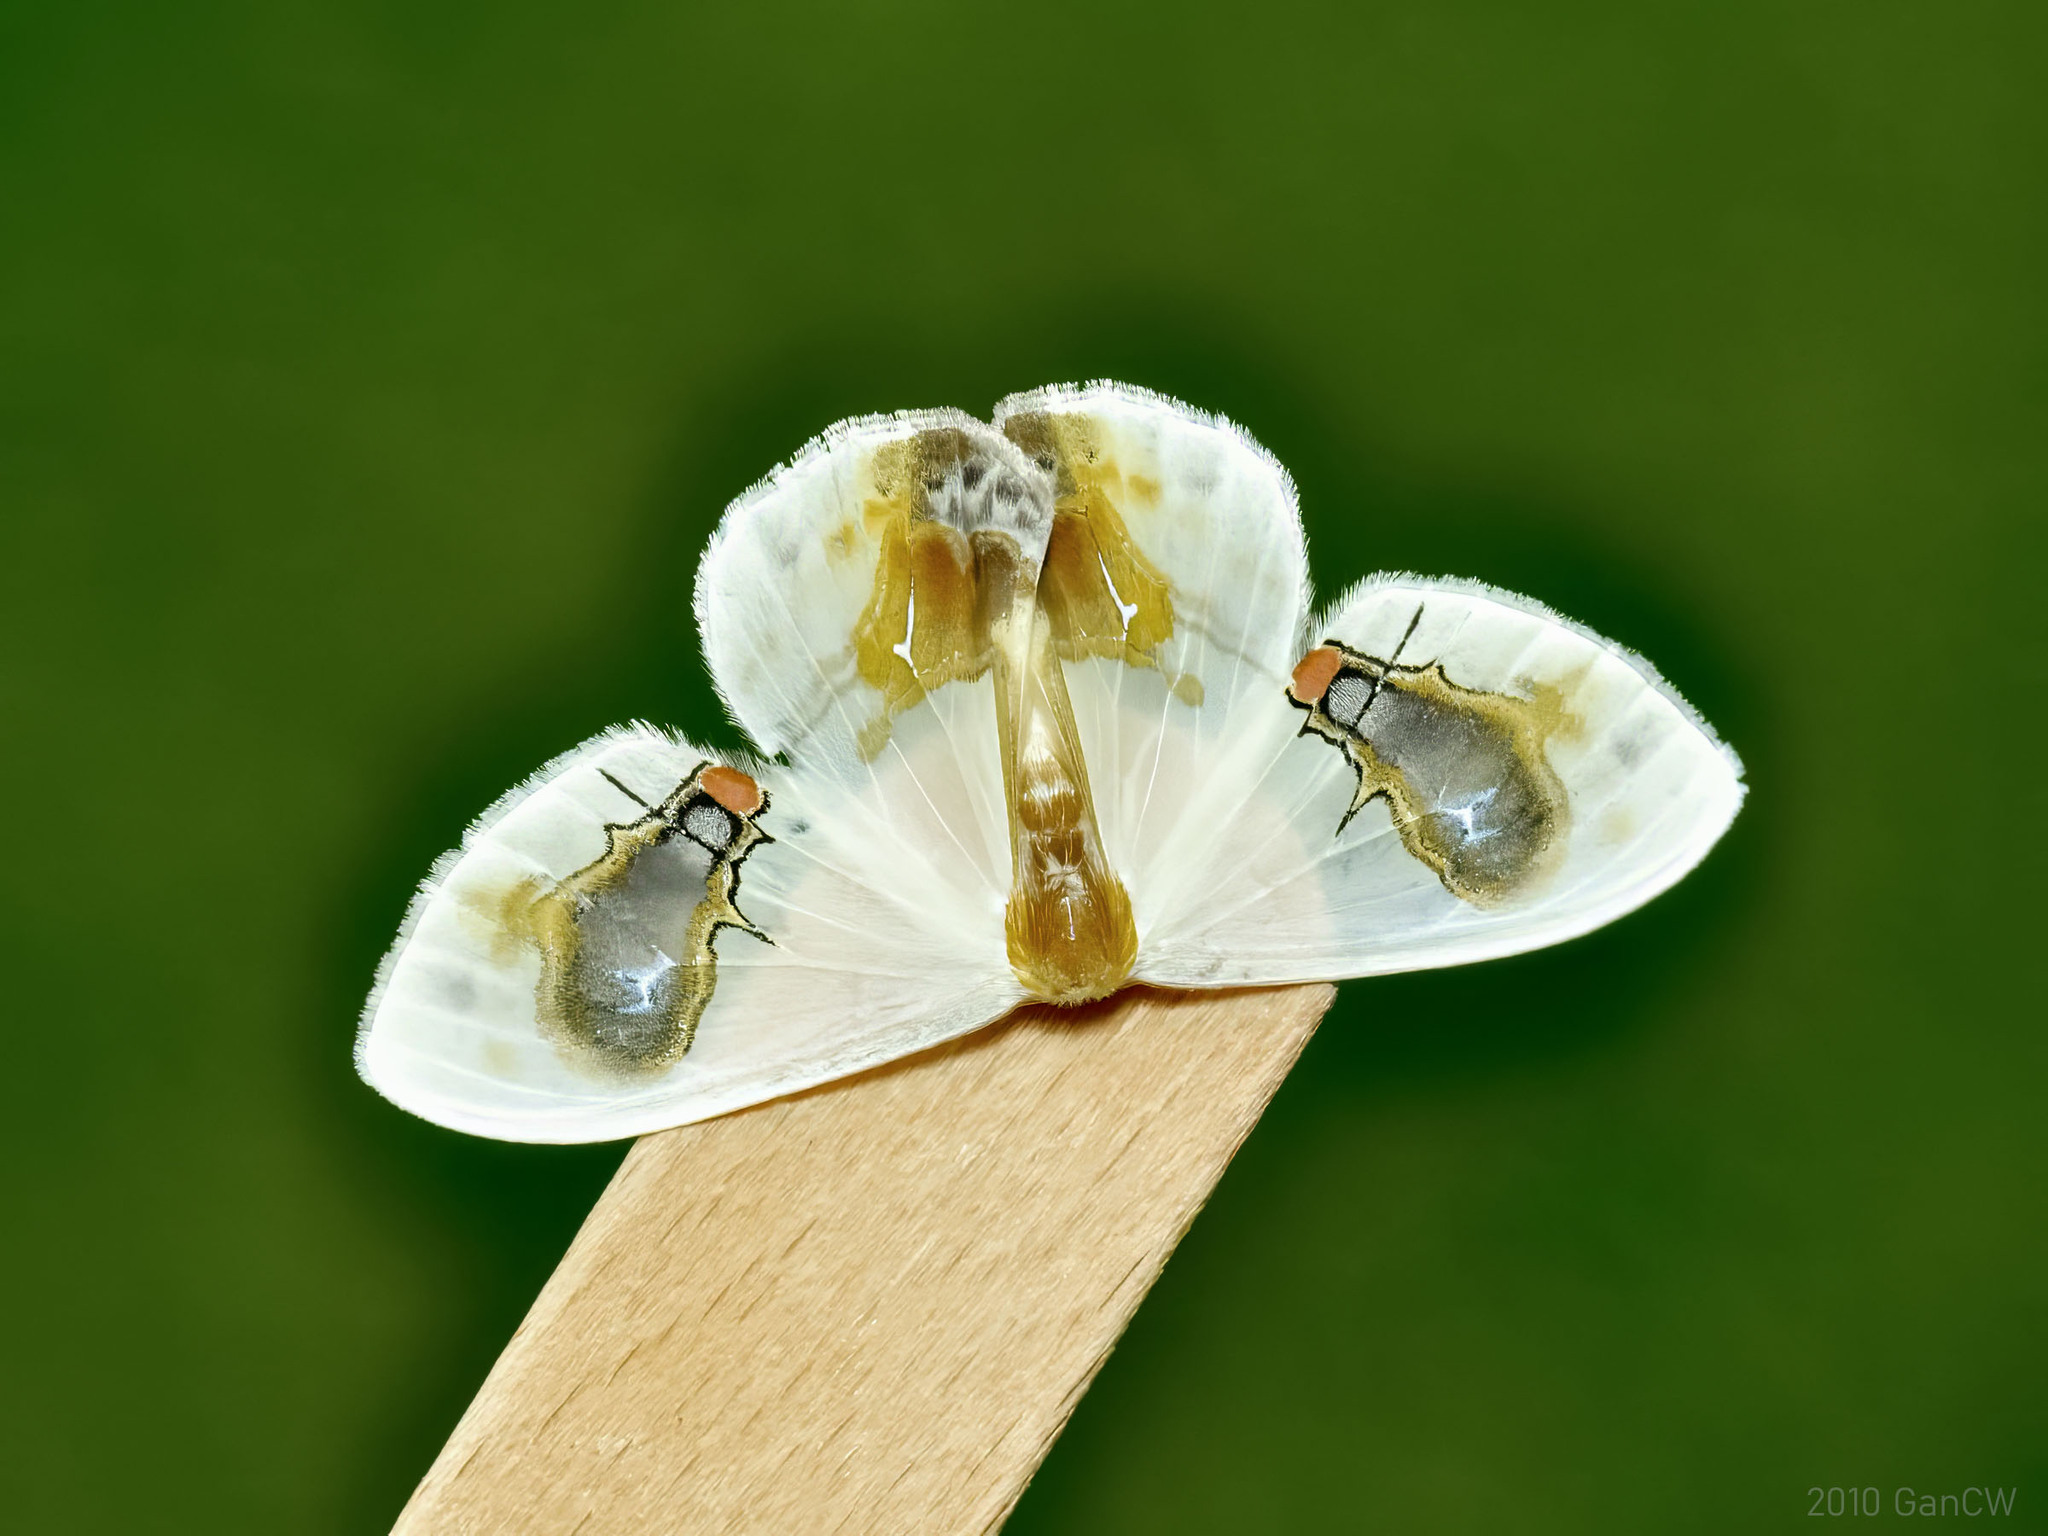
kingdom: Animalia
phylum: Arthropoda
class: Insecta
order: Lepidoptera
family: Drepanidae
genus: Macrocilix
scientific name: Macrocilix maia
